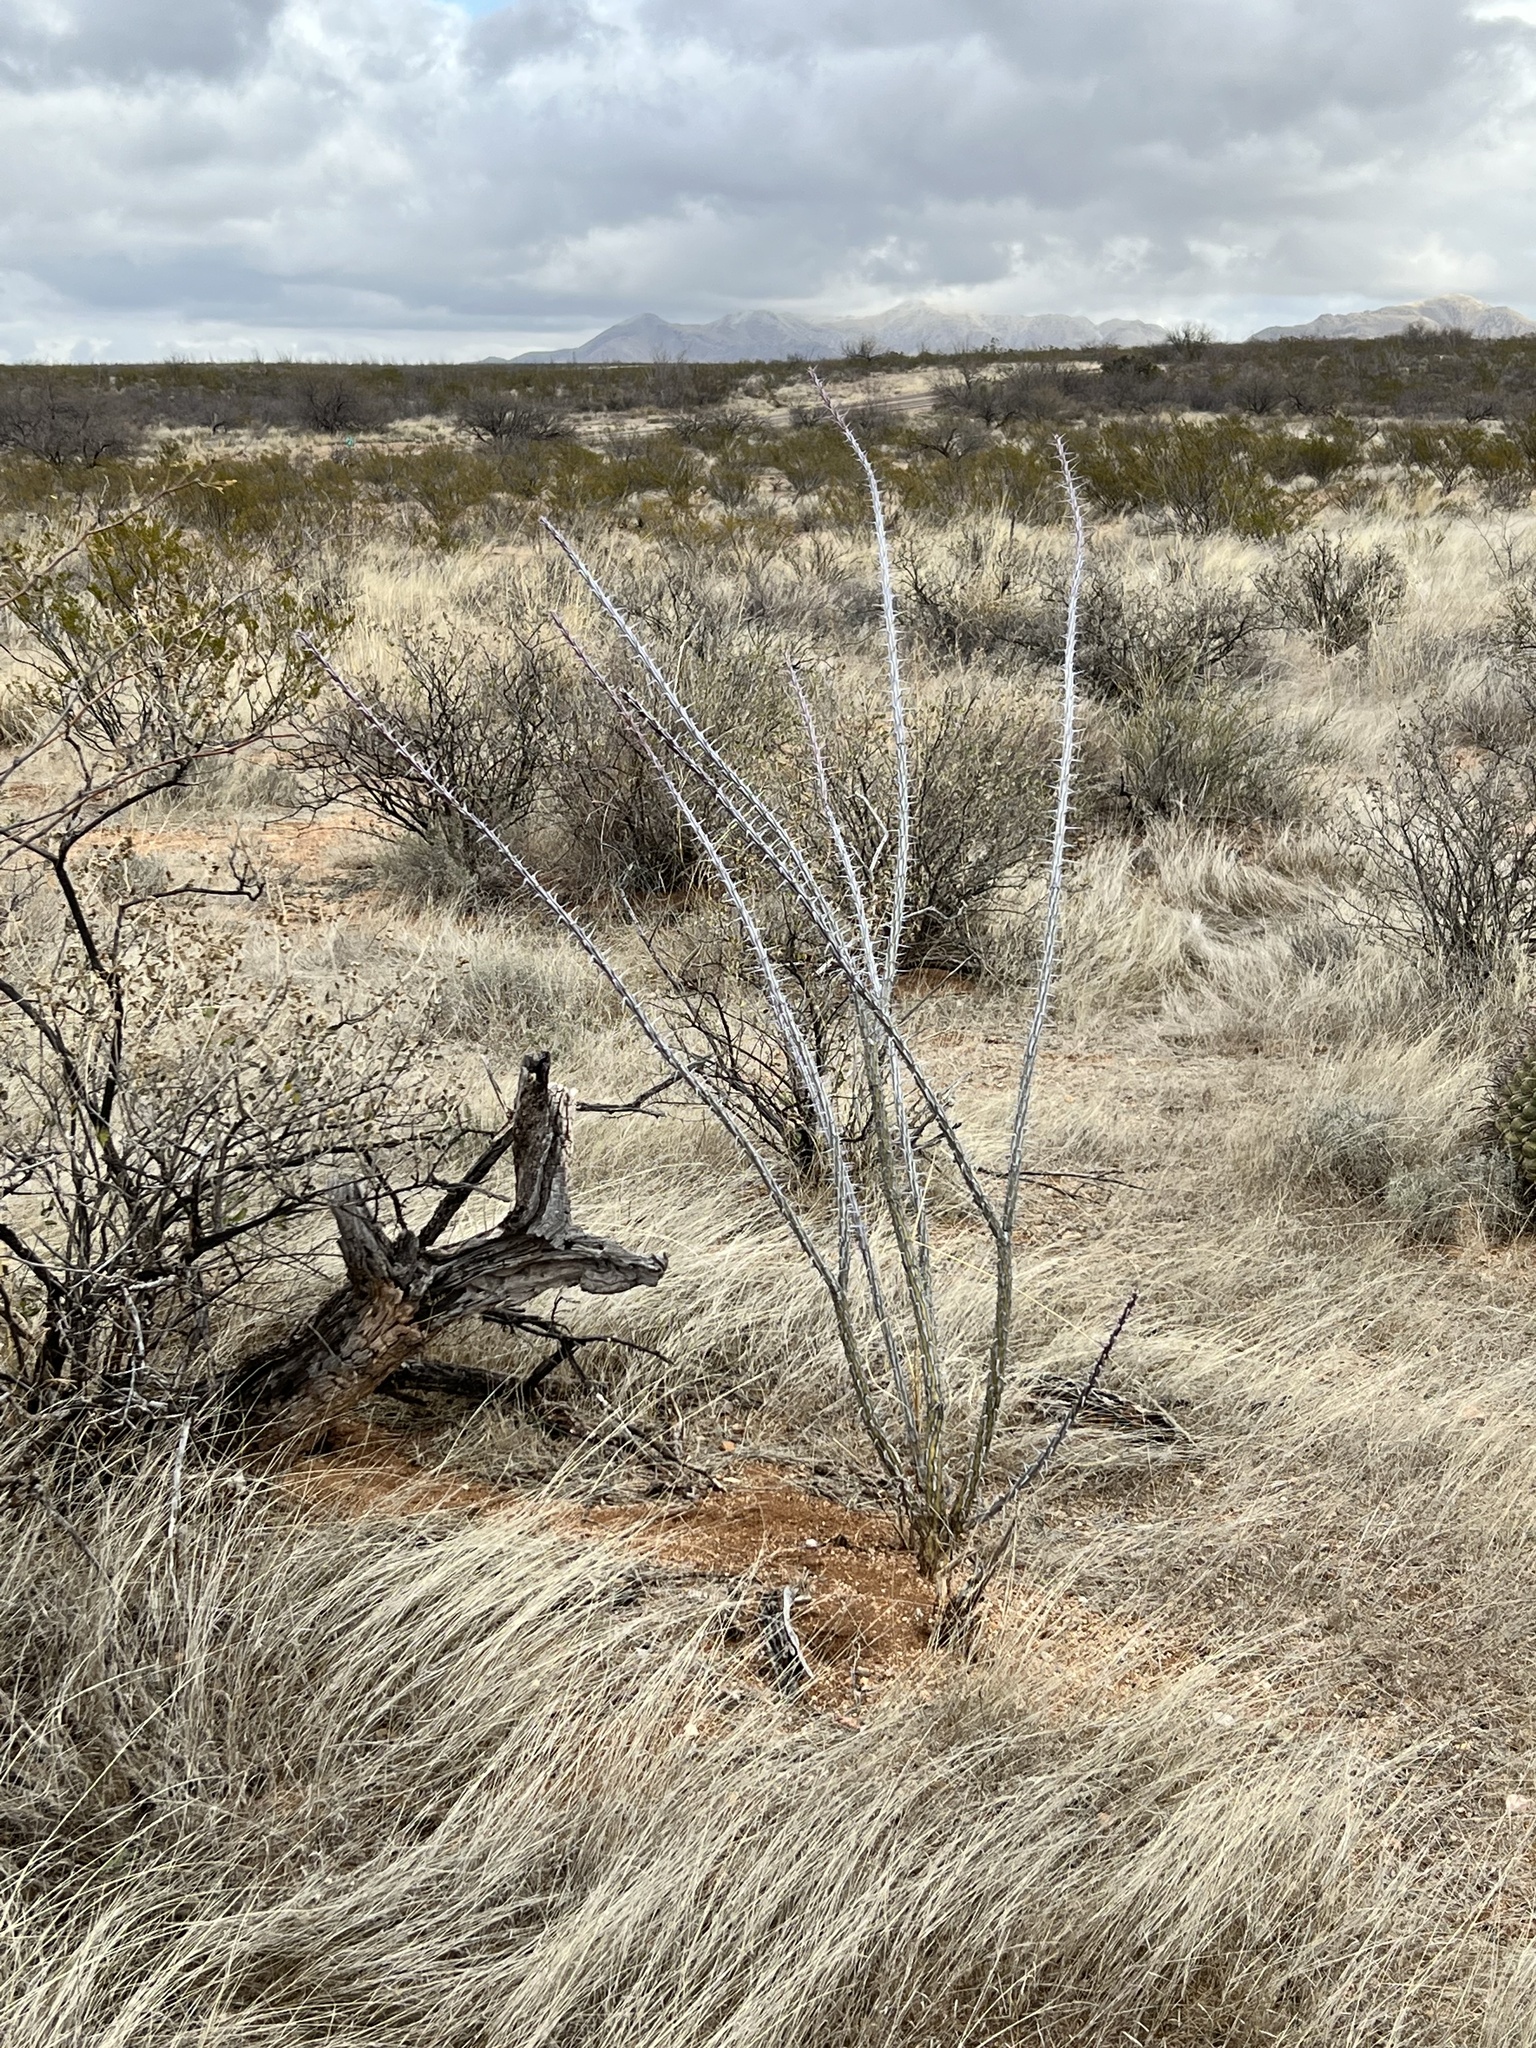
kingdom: Plantae
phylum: Tracheophyta
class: Magnoliopsida
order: Ericales
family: Fouquieriaceae
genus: Fouquieria
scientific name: Fouquieria splendens
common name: Vine-cactus
